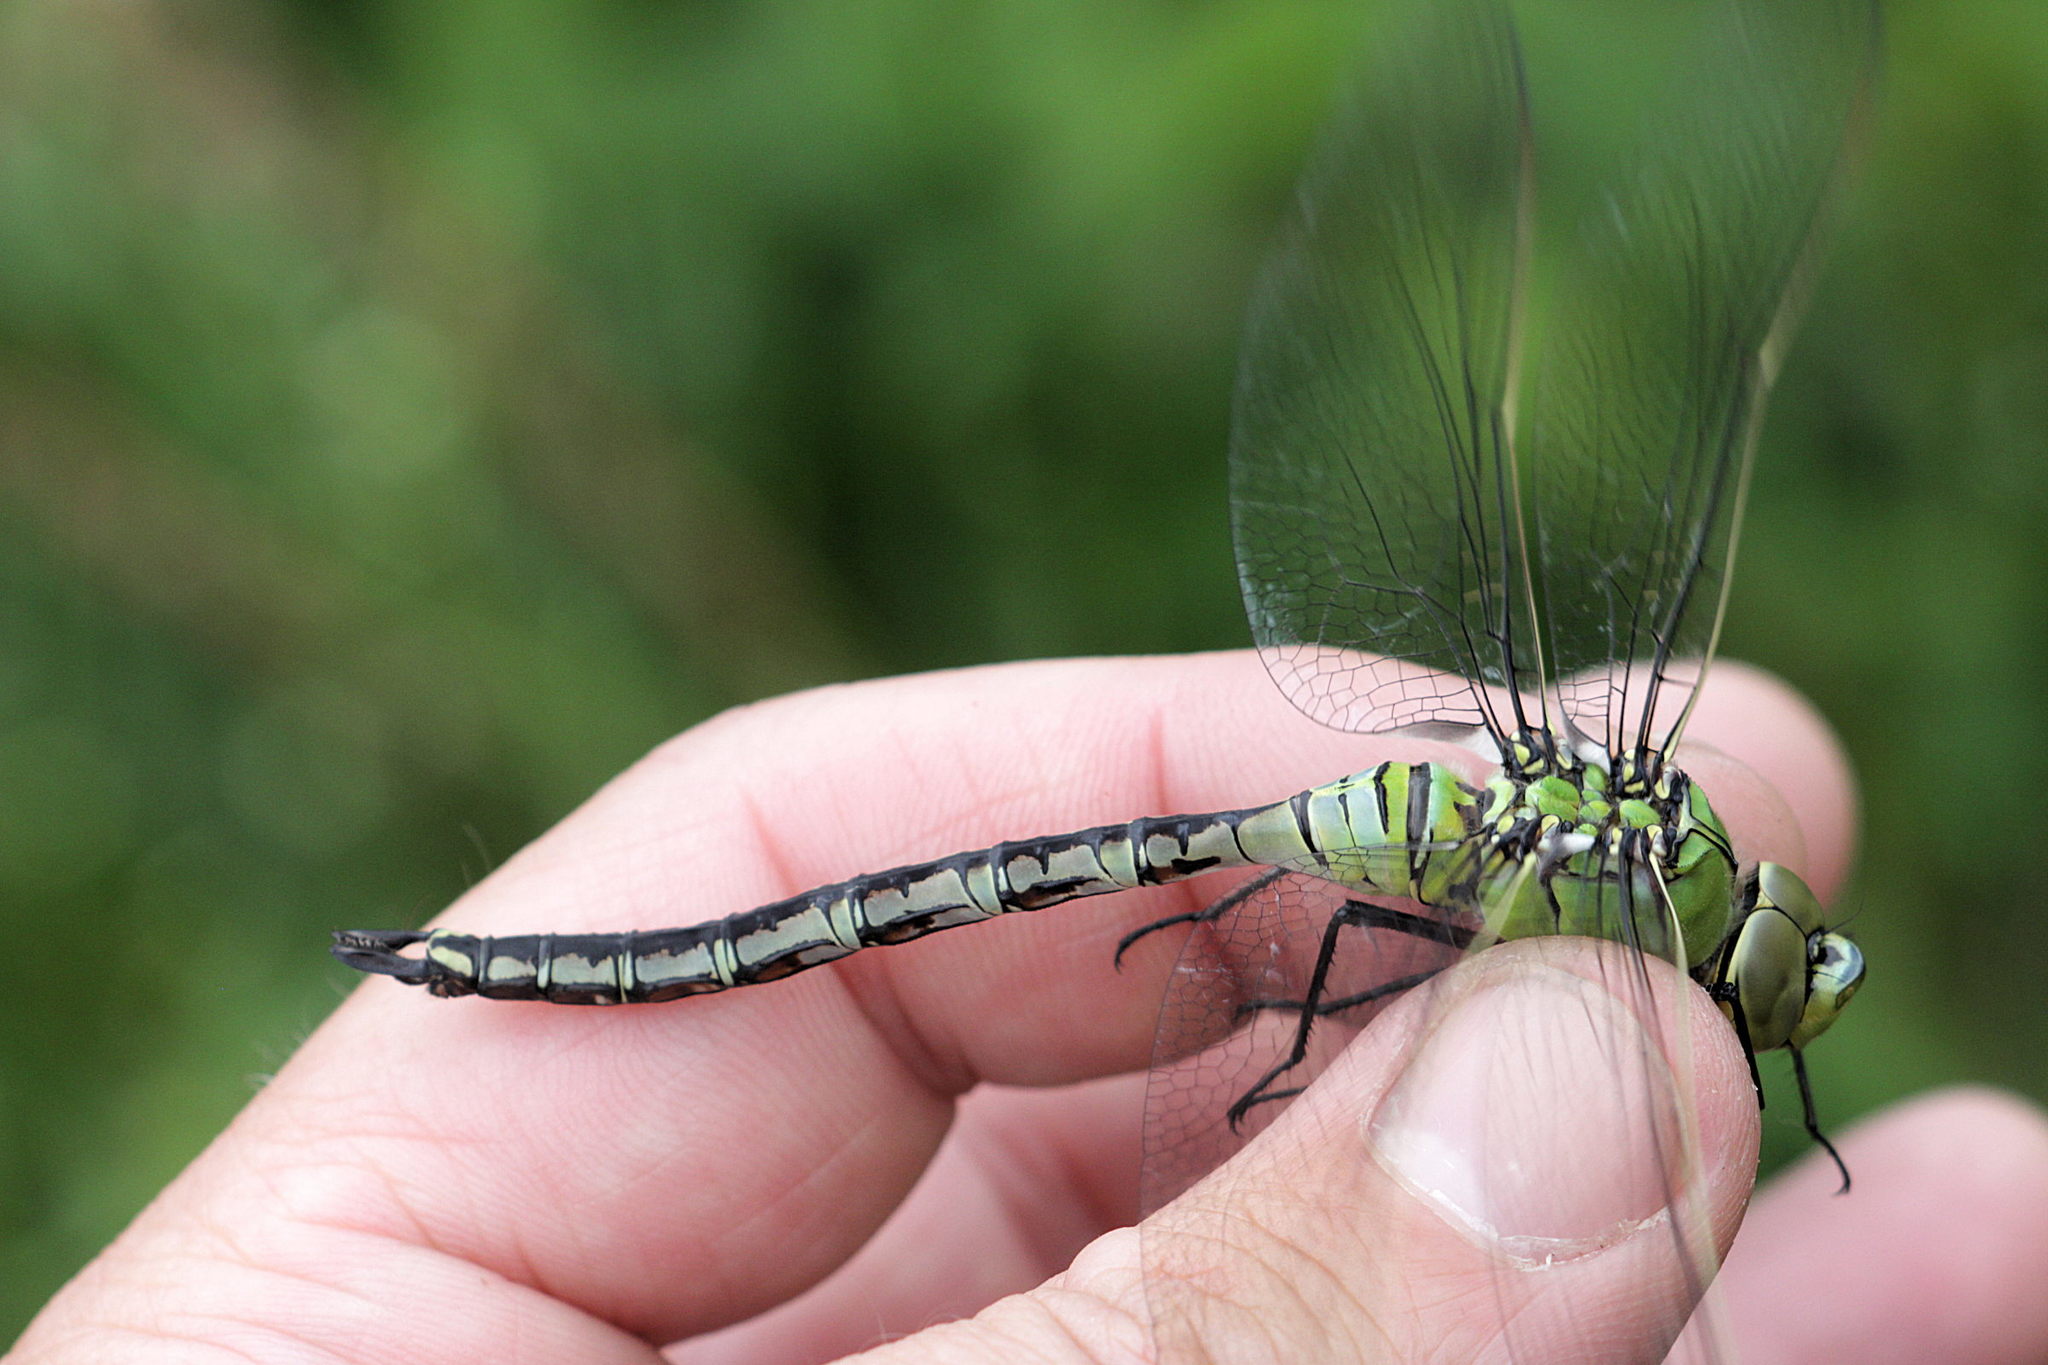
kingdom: Animalia
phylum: Arthropoda
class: Insecta
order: Odonata
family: Aeshnidae
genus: Anax
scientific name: Anax imperator
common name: Emperor dragonfly
